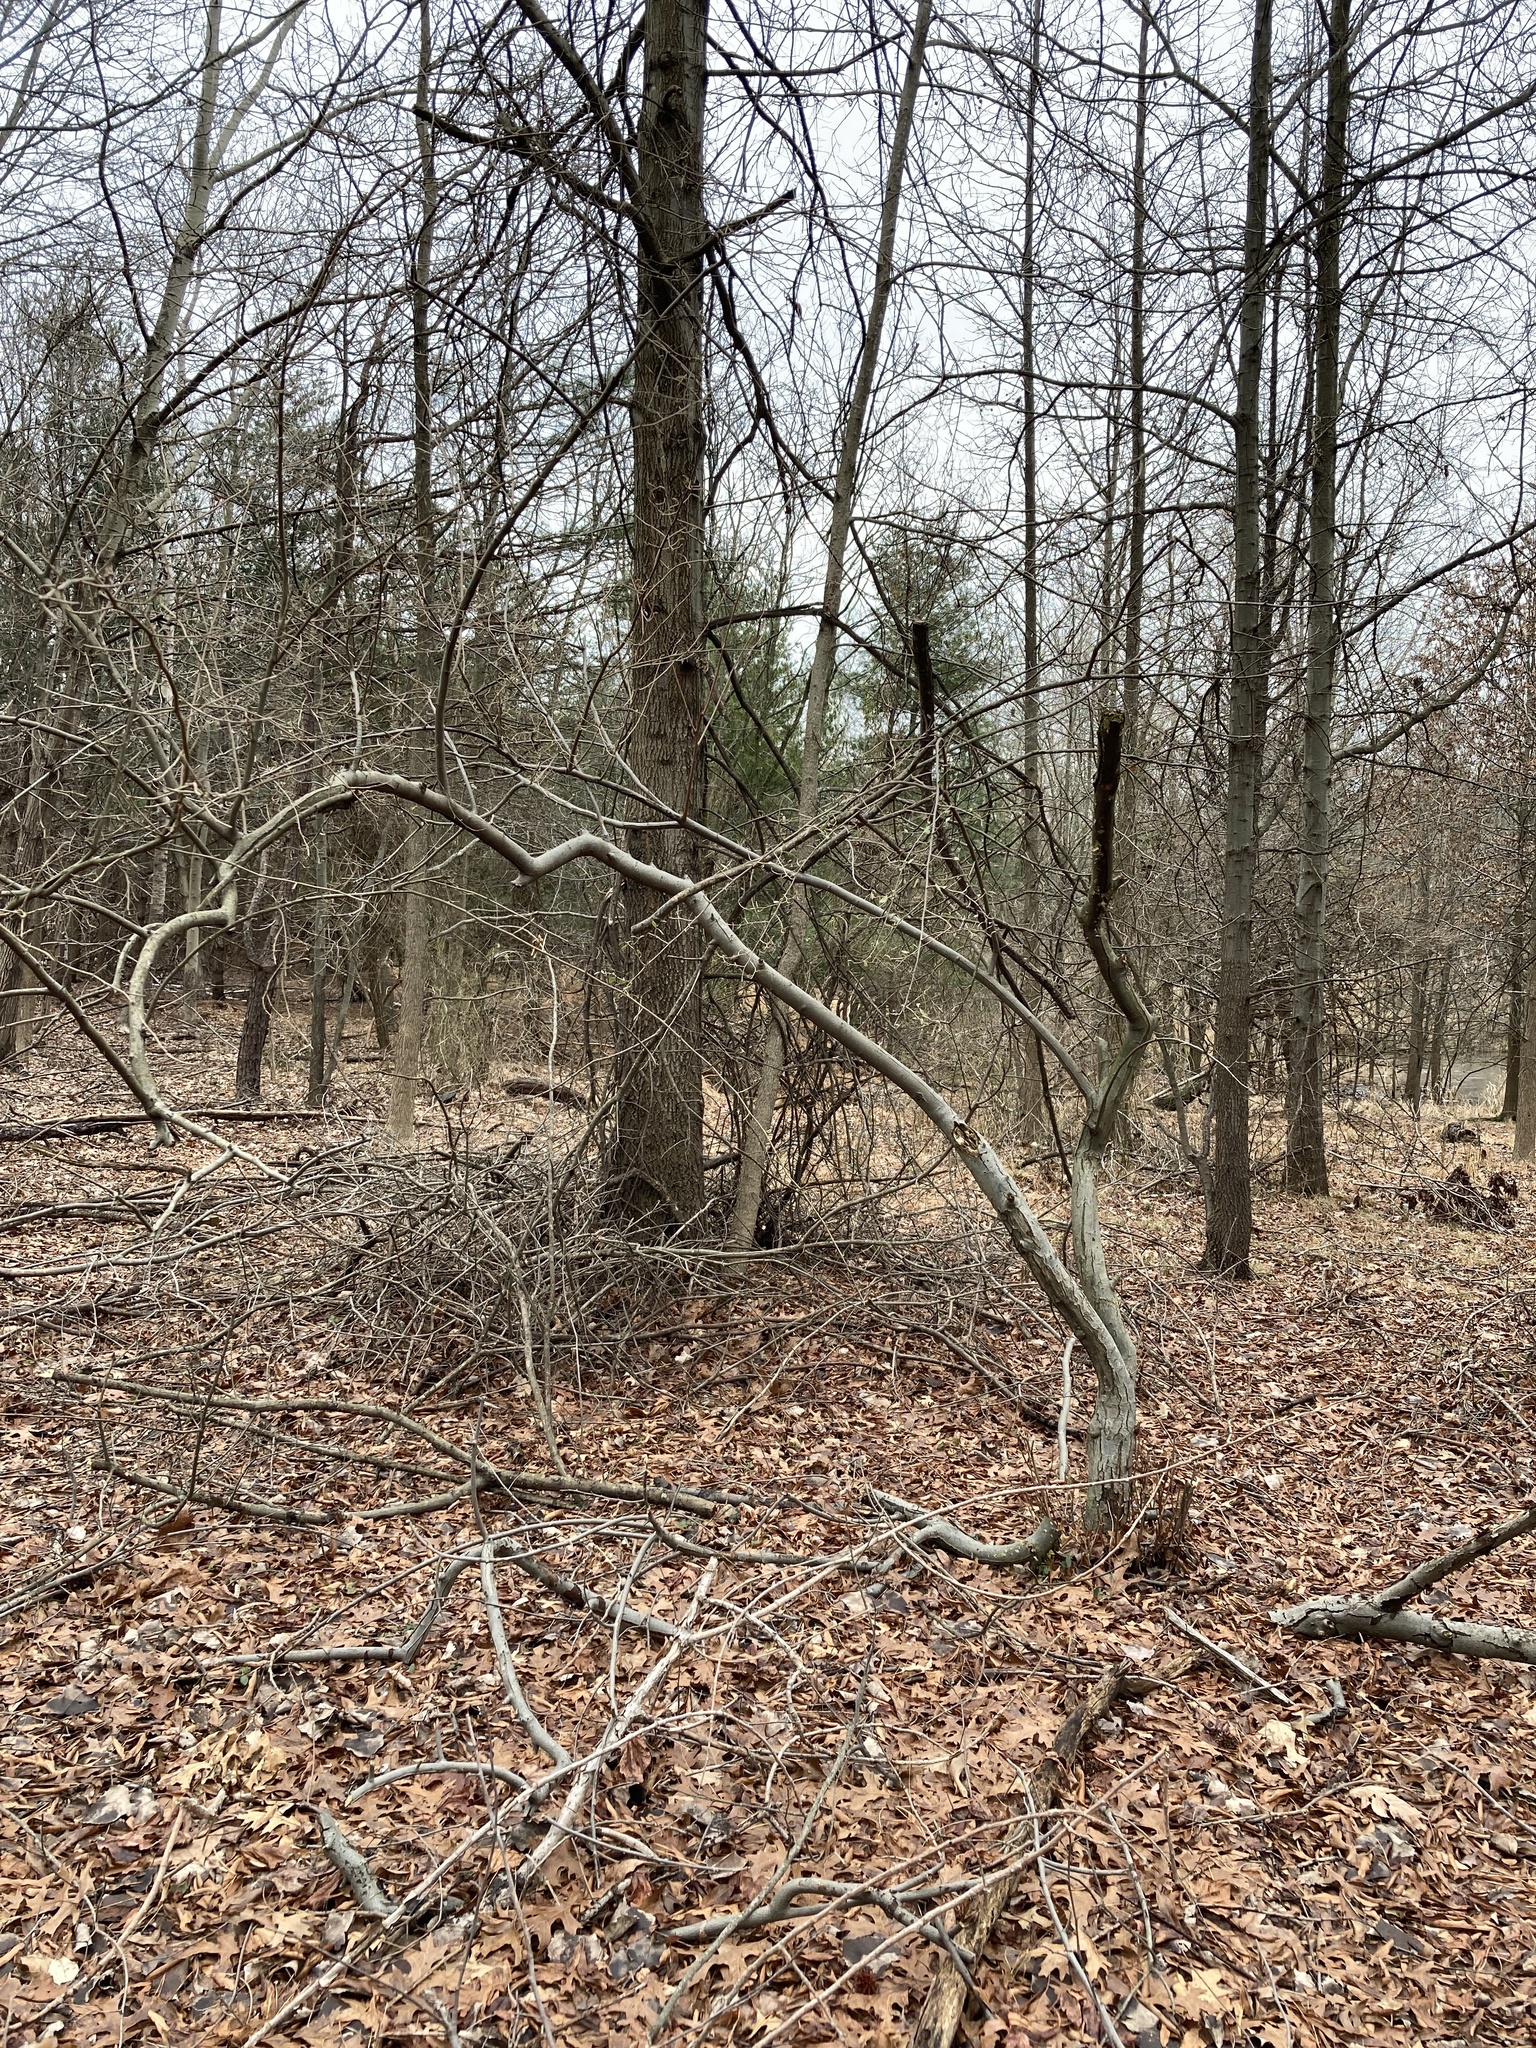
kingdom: Plantae
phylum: Tracheophyta
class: Magnoliopsida
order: Rosales
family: Elaeagnaceae
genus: Elaeagnus
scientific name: Elaeagnus umbellata
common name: Autumn olive
